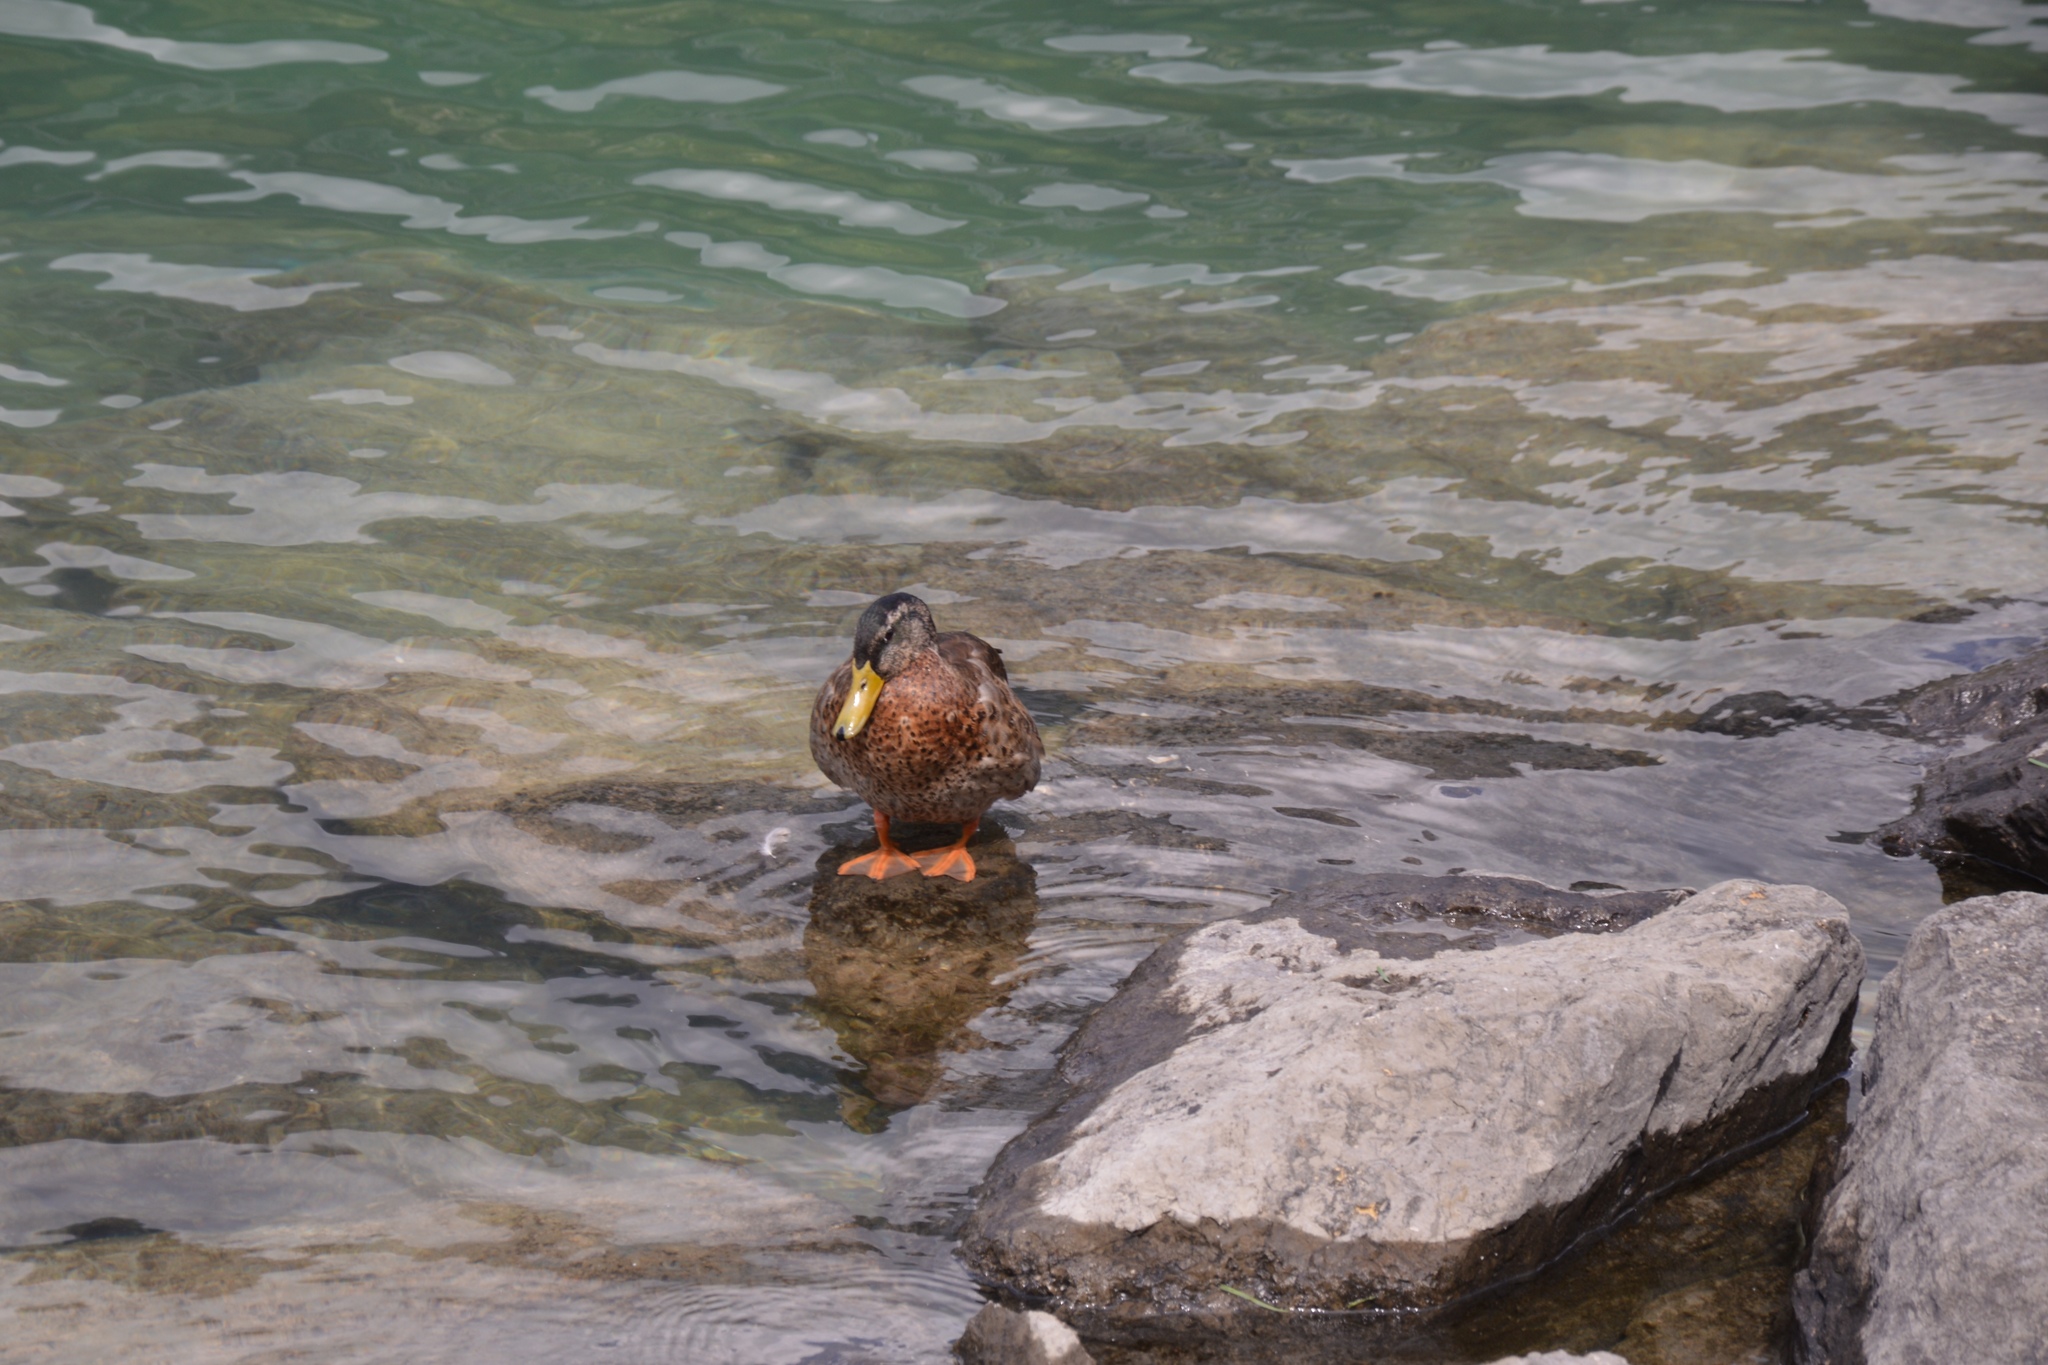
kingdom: Animalia
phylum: Chordata
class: Aves
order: Anseriformes
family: Anatidae
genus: Anas
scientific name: Anas platyrhynchos
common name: Mallard
